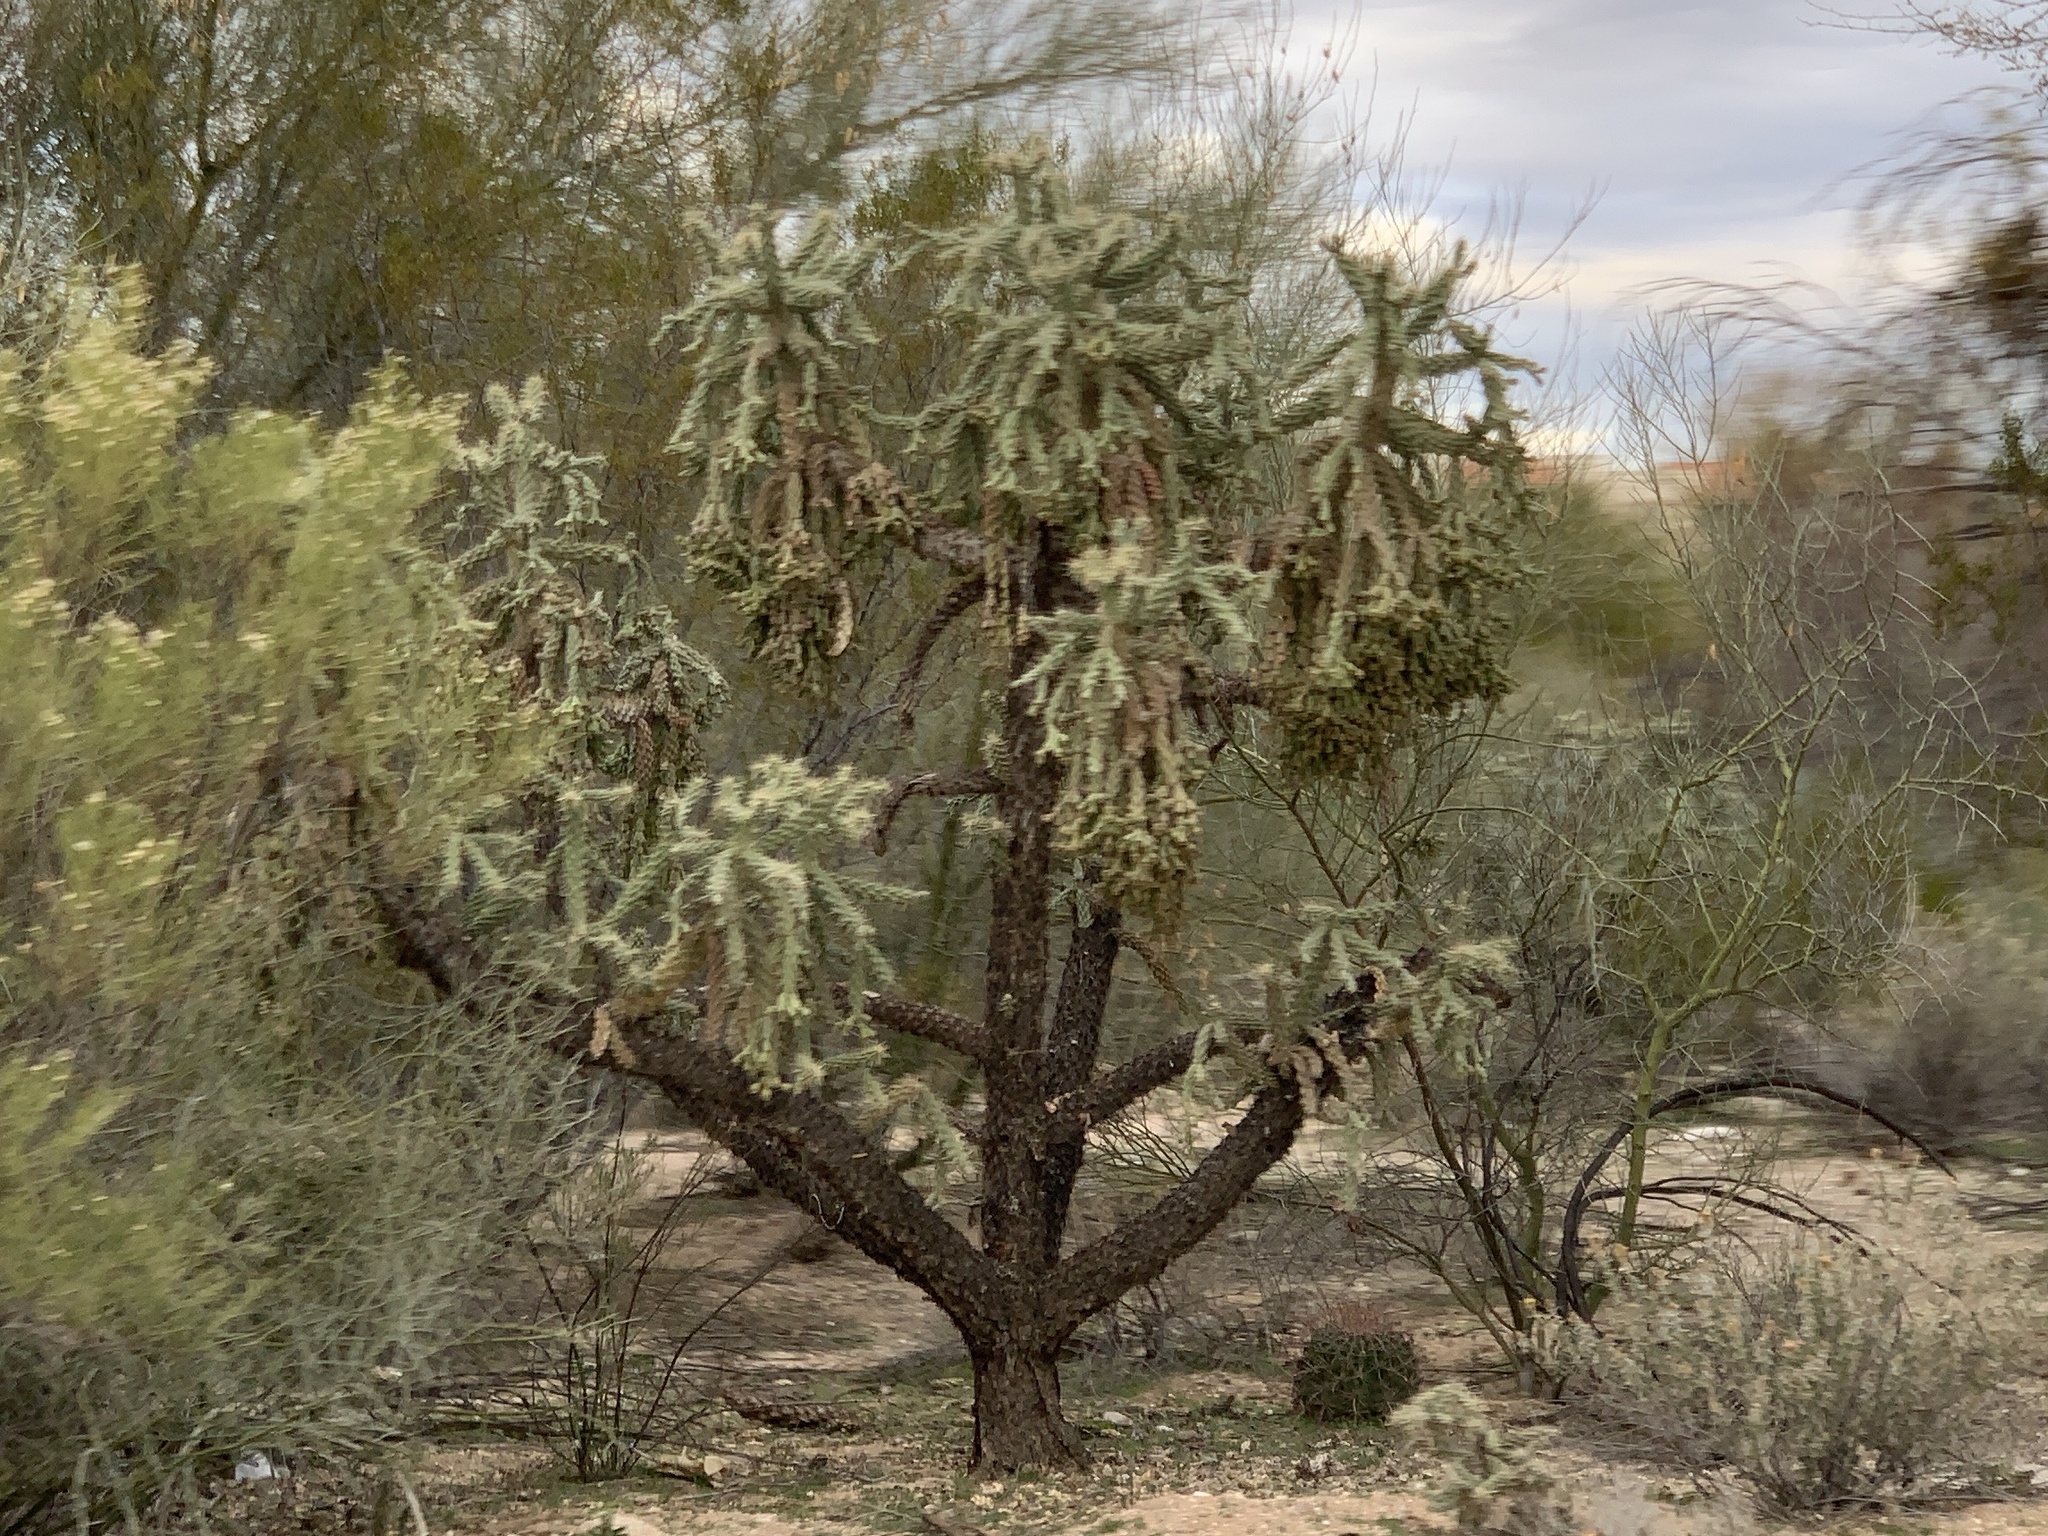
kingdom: Plantae
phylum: Tracheophyta
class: Magnoliopsida
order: Caryophyllales
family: Cactaceae
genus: Cylindropuntia
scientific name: Cylindropuntia fulgida
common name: Jumping cholla
